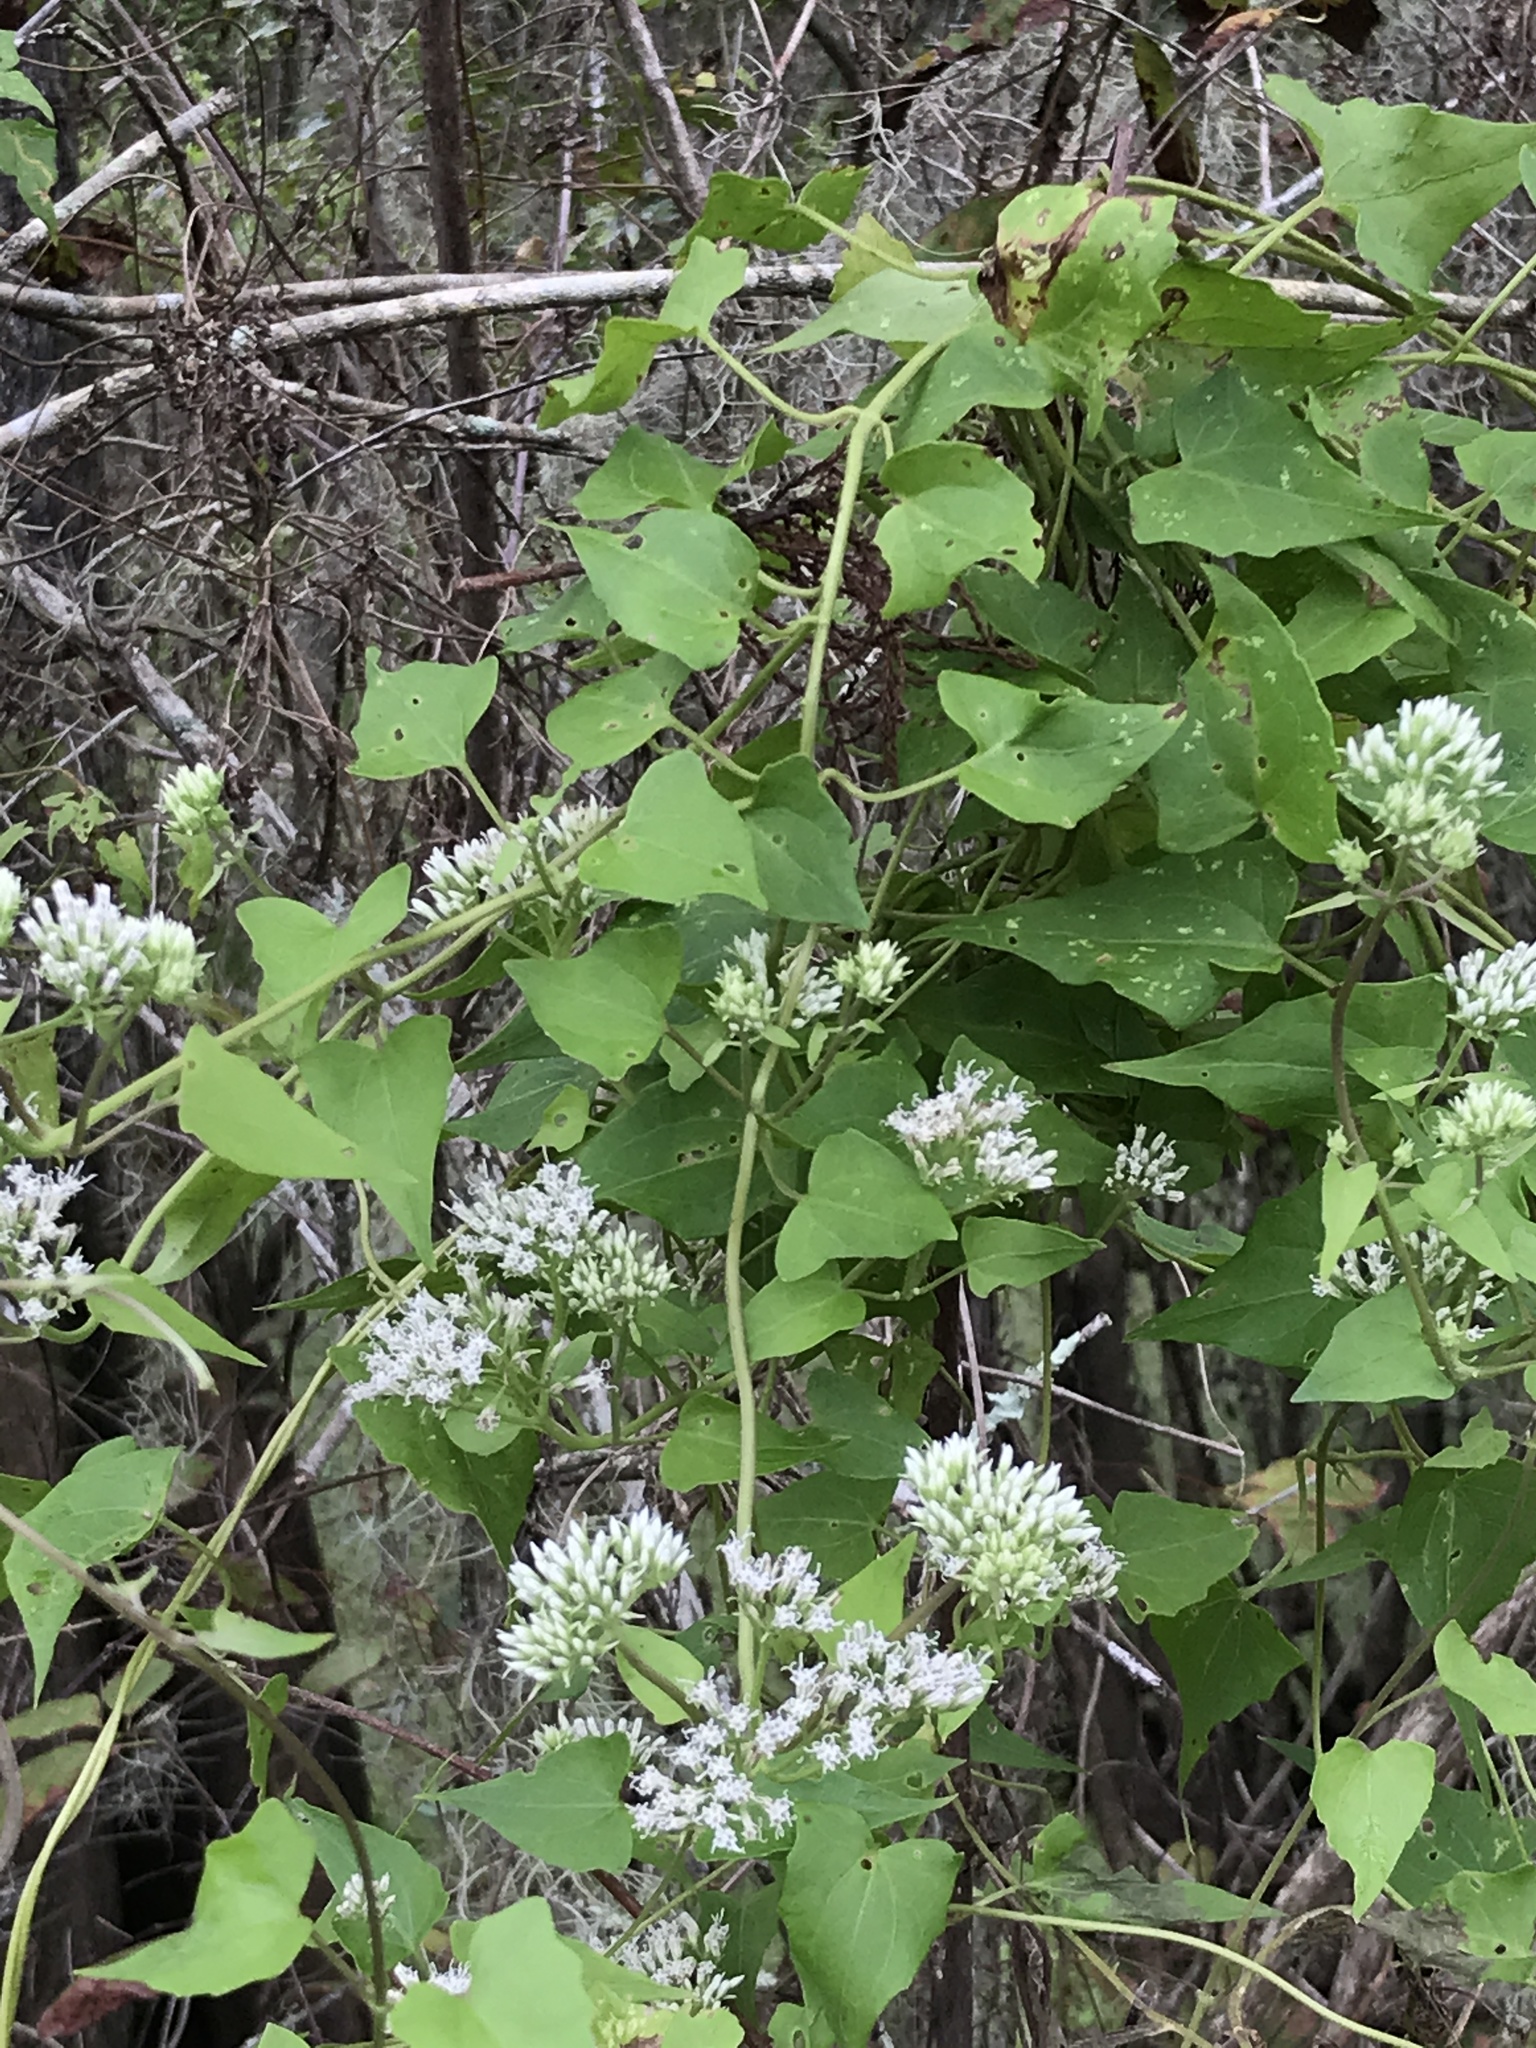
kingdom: Plantae
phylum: Tracheophyta
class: Magnoliopsida
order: Asterales
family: Asteraceae
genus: Mikania
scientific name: Mikania scandens
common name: Climbing hempvine
